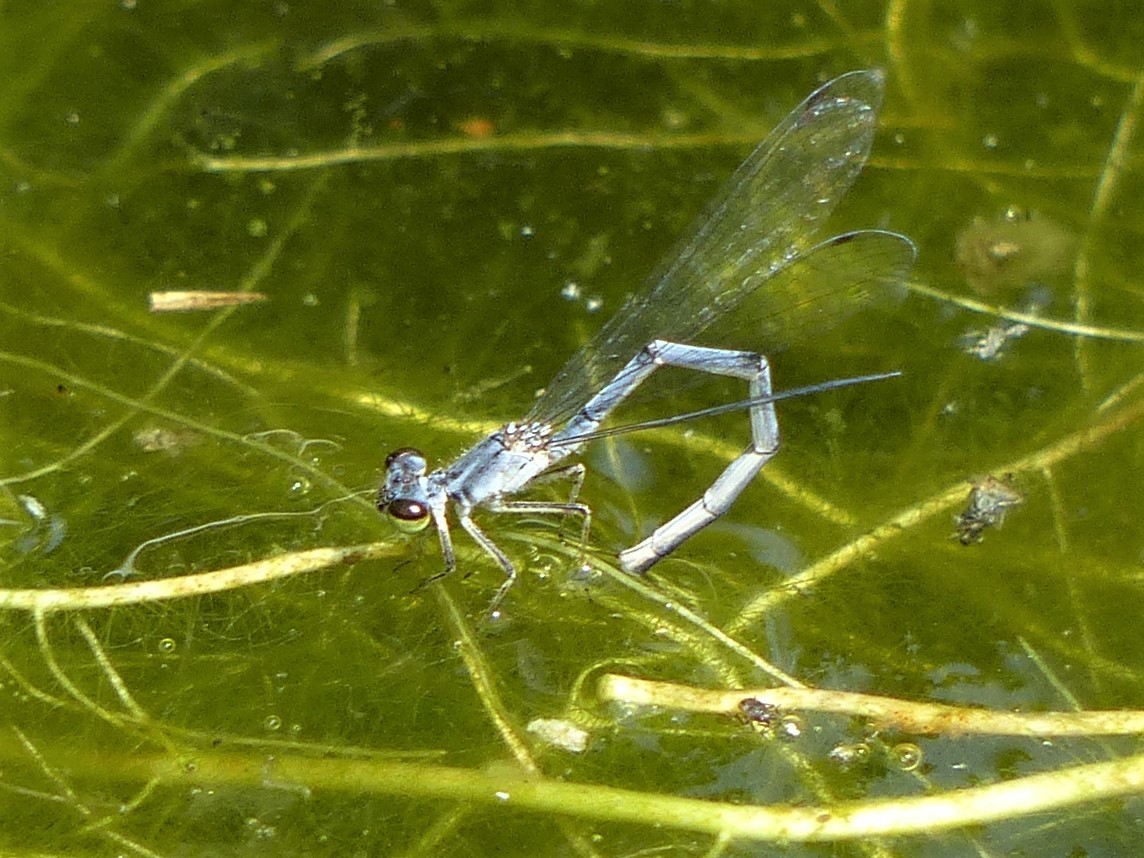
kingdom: Animalia
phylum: Arthropoda
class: Insecta
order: Odonata
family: Coenagrionidae
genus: Ischnura
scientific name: Ischnura posita
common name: Fragile forktail
